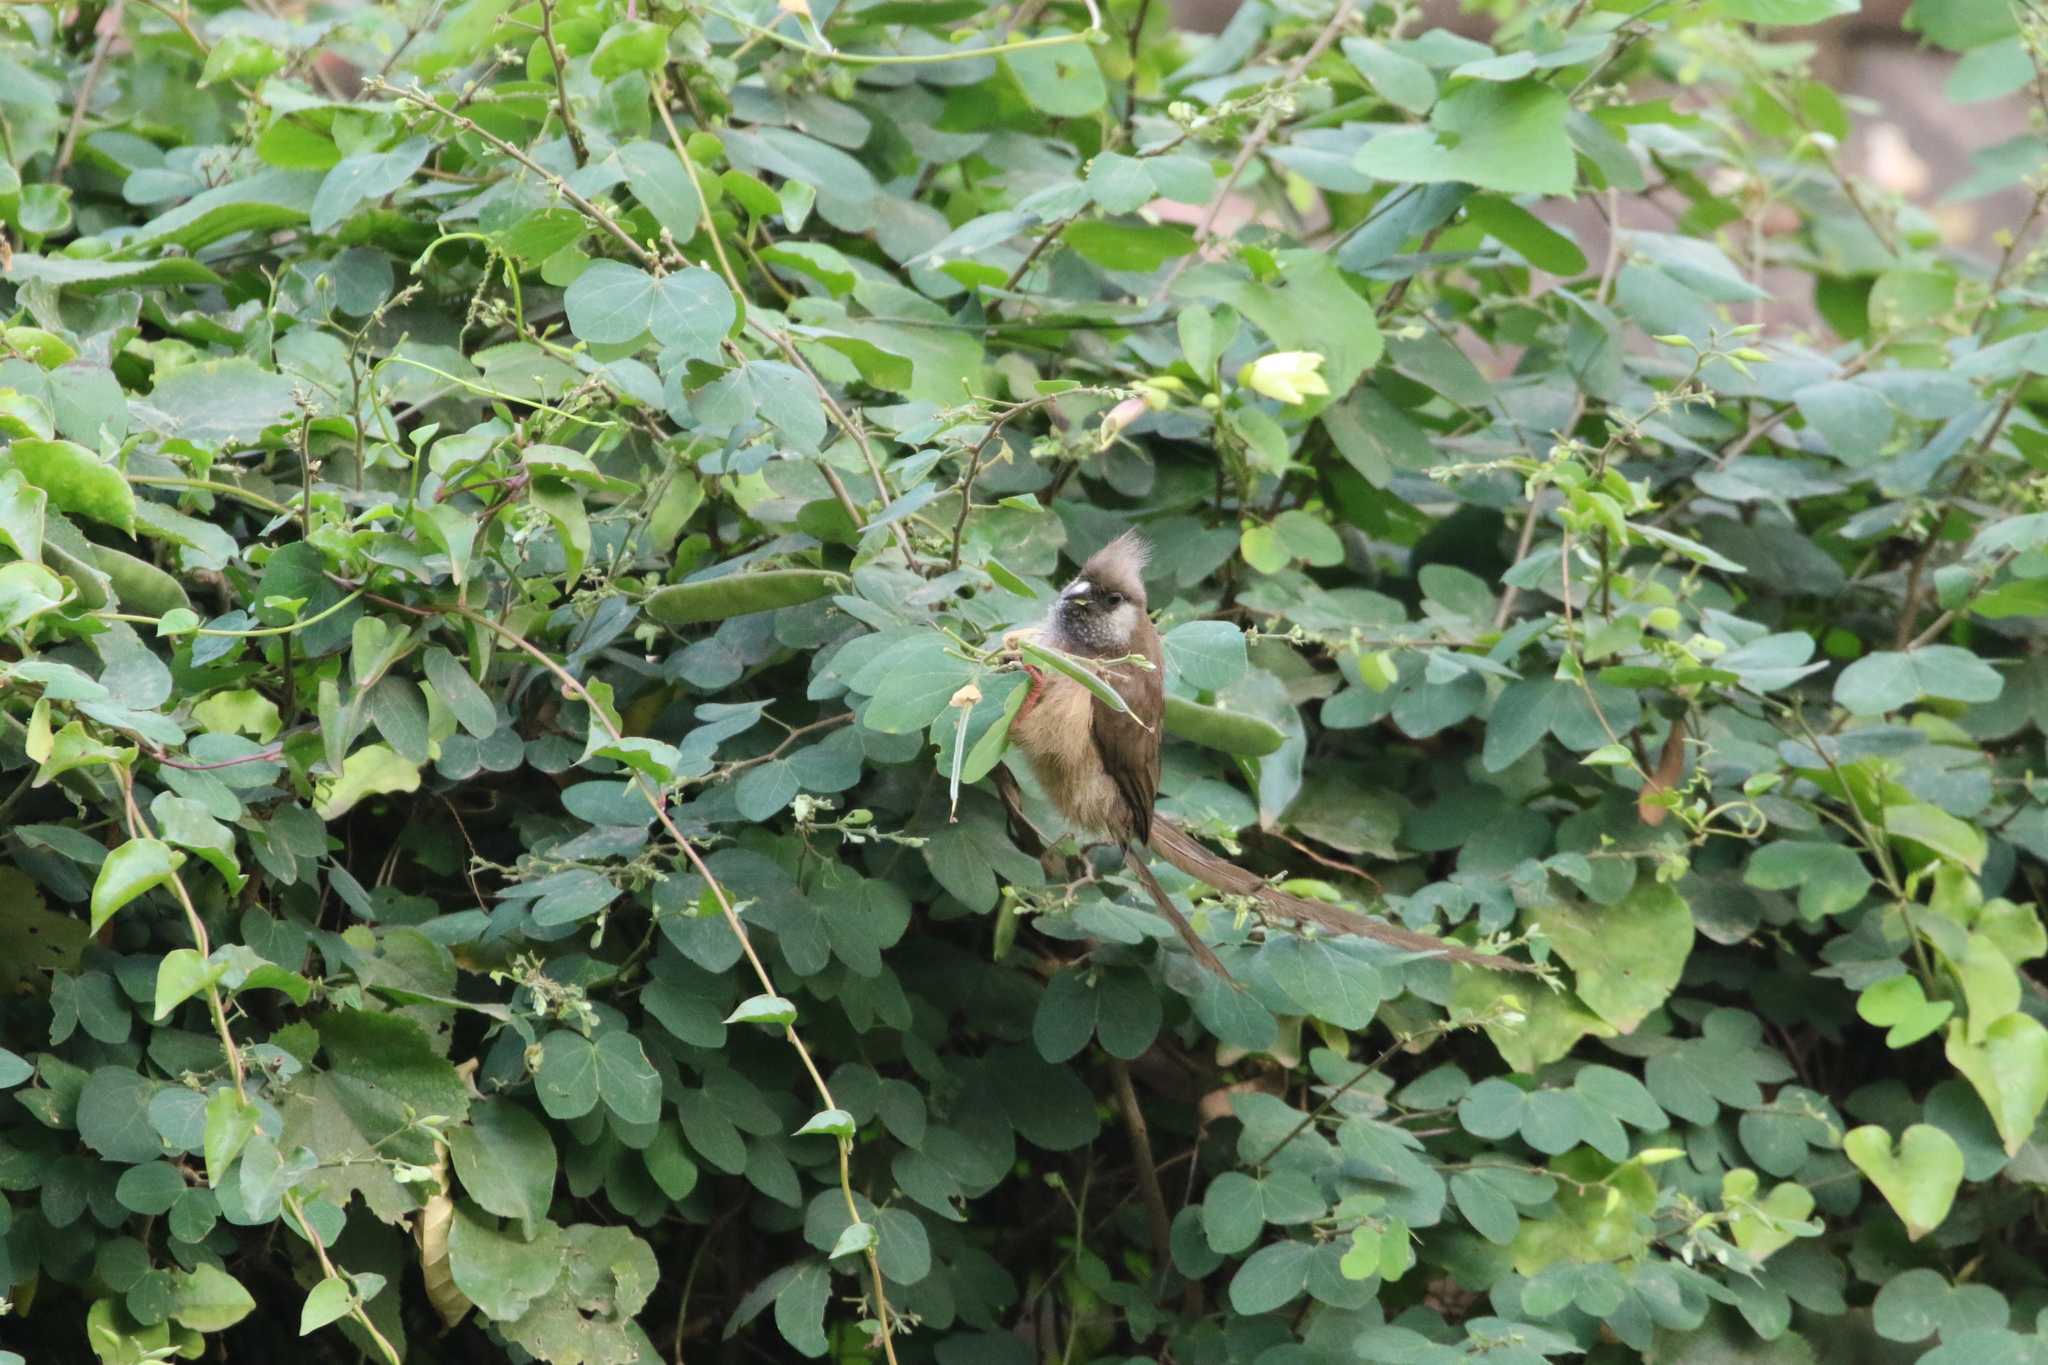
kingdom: Animalia
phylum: Chordata
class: Aves
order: Coliiformes
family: Coliidae
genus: Colius
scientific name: Colius striatus
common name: Speckled mousebird
